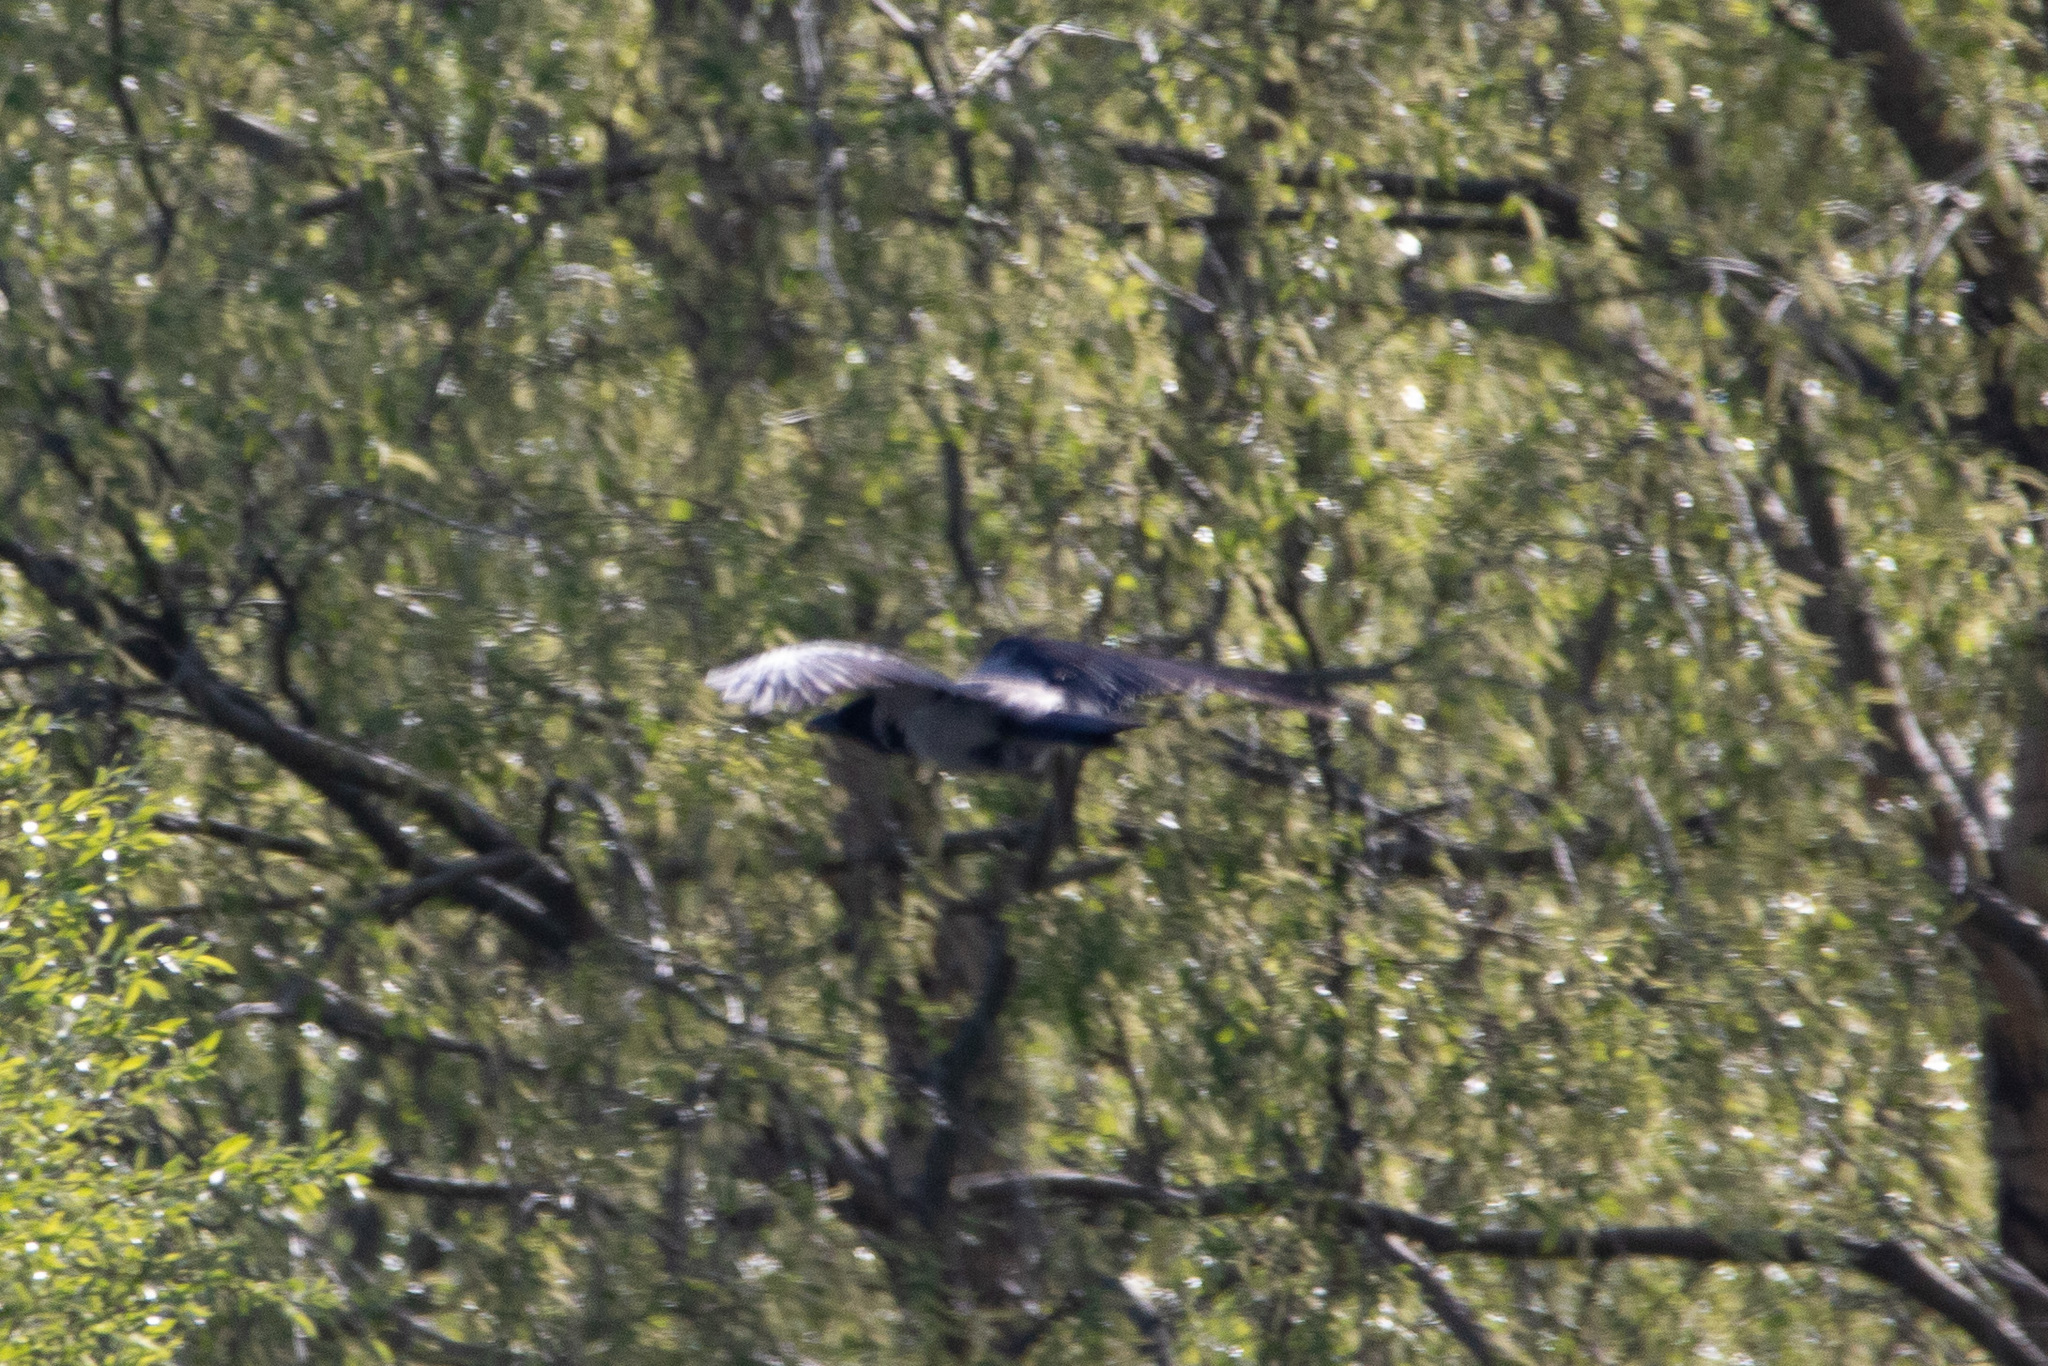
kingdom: Animalia
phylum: Chordata
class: Aves
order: Passeriformes
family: Corvidae
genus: Corvus
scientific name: Corvus cornix
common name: Hooded crow
